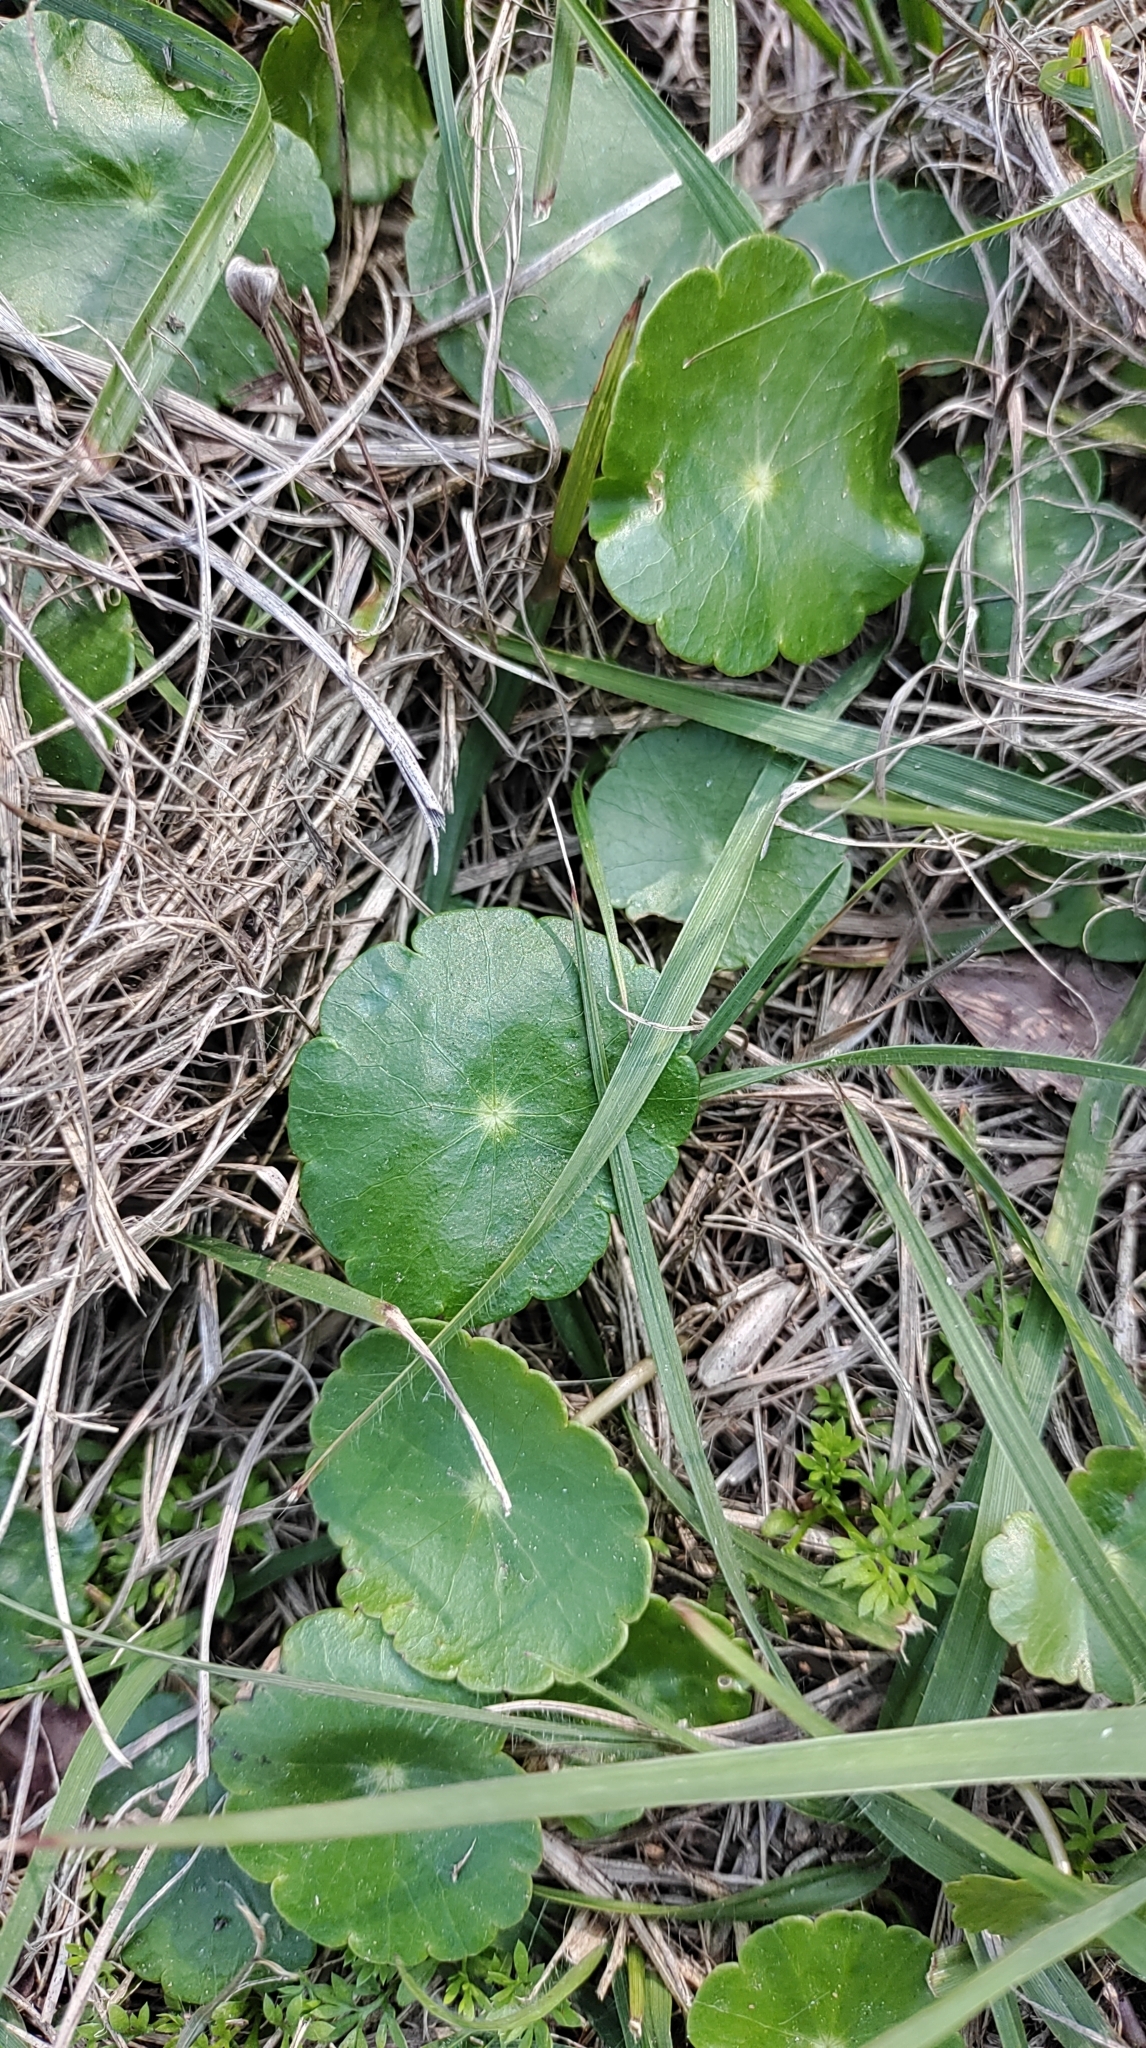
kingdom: Plantae
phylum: Tracheophyta
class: Magnoliopsida
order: Apiales
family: Araliaceae
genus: Hydrocotyle
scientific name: Hydrocotyle verticillata
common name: Whorled marshpennywort
